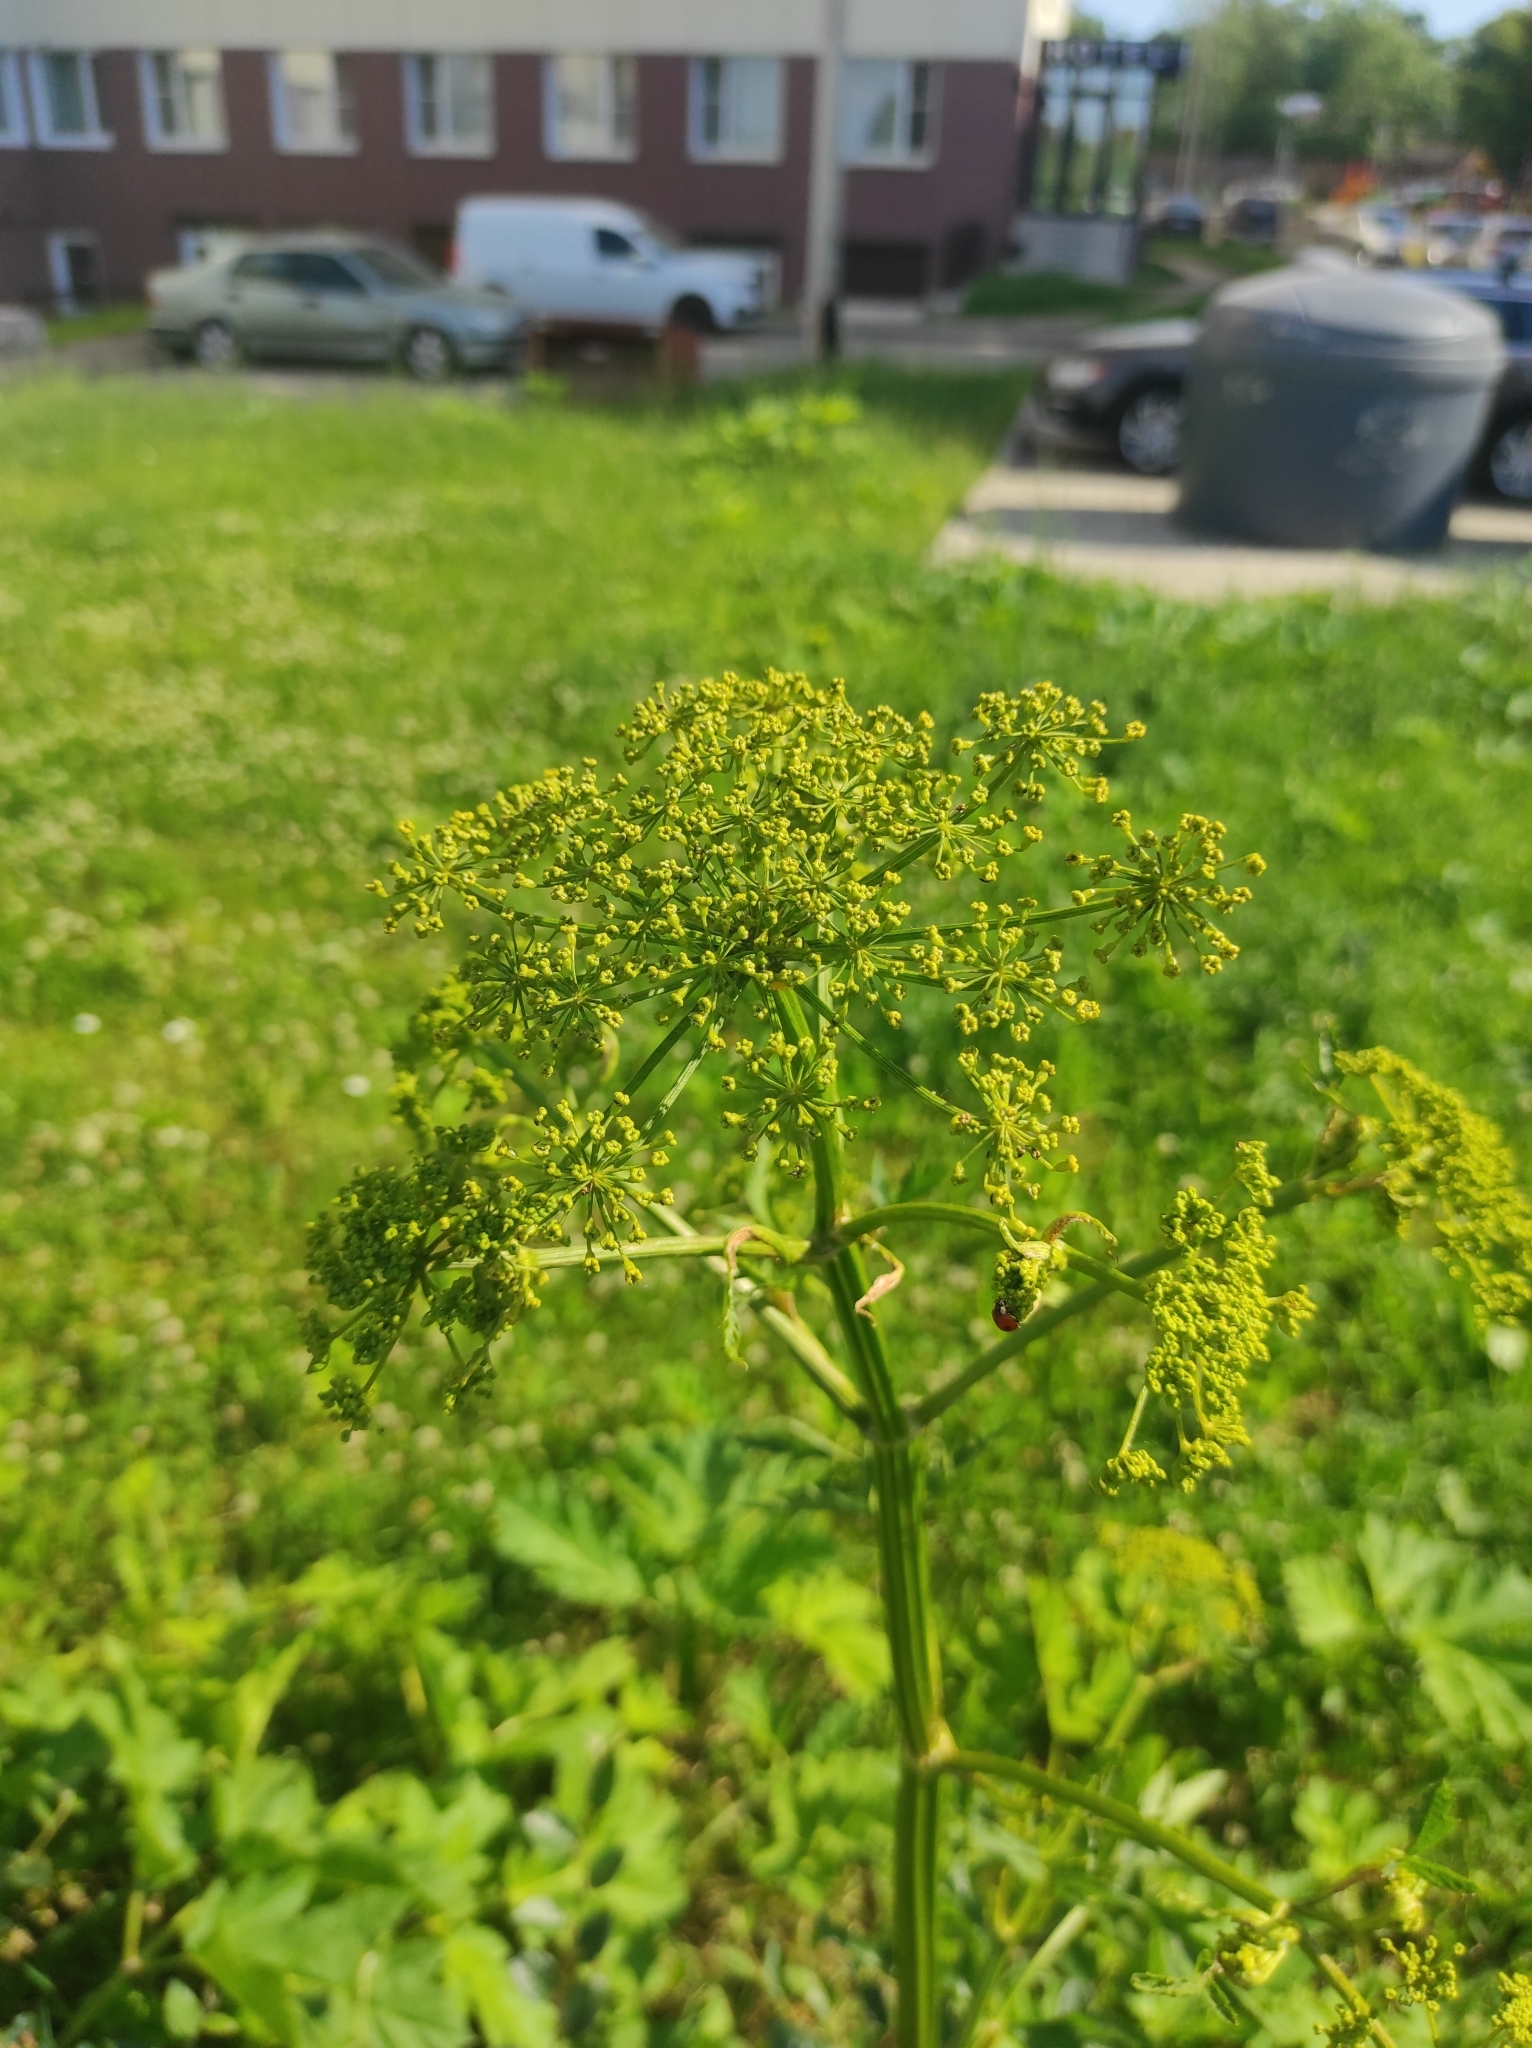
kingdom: Plantae
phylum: Tracheophyta
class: Magnoliopsida
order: Apiales
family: Apiaceae
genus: Pastinaca
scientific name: Pastinaca sativa
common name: Wild parsnip
